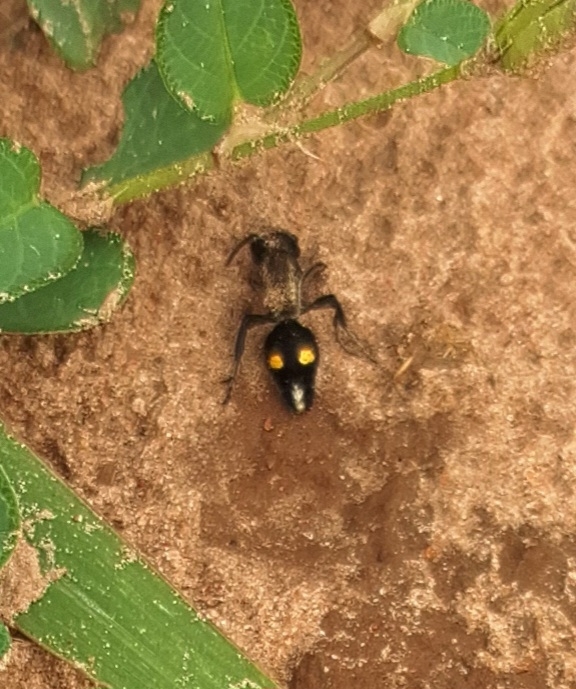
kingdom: Animalia
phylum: Arthropoda
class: Insecta
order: Hymenoptera
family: Mutillidae
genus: Cephalomutilla
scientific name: Cephalomutilla
